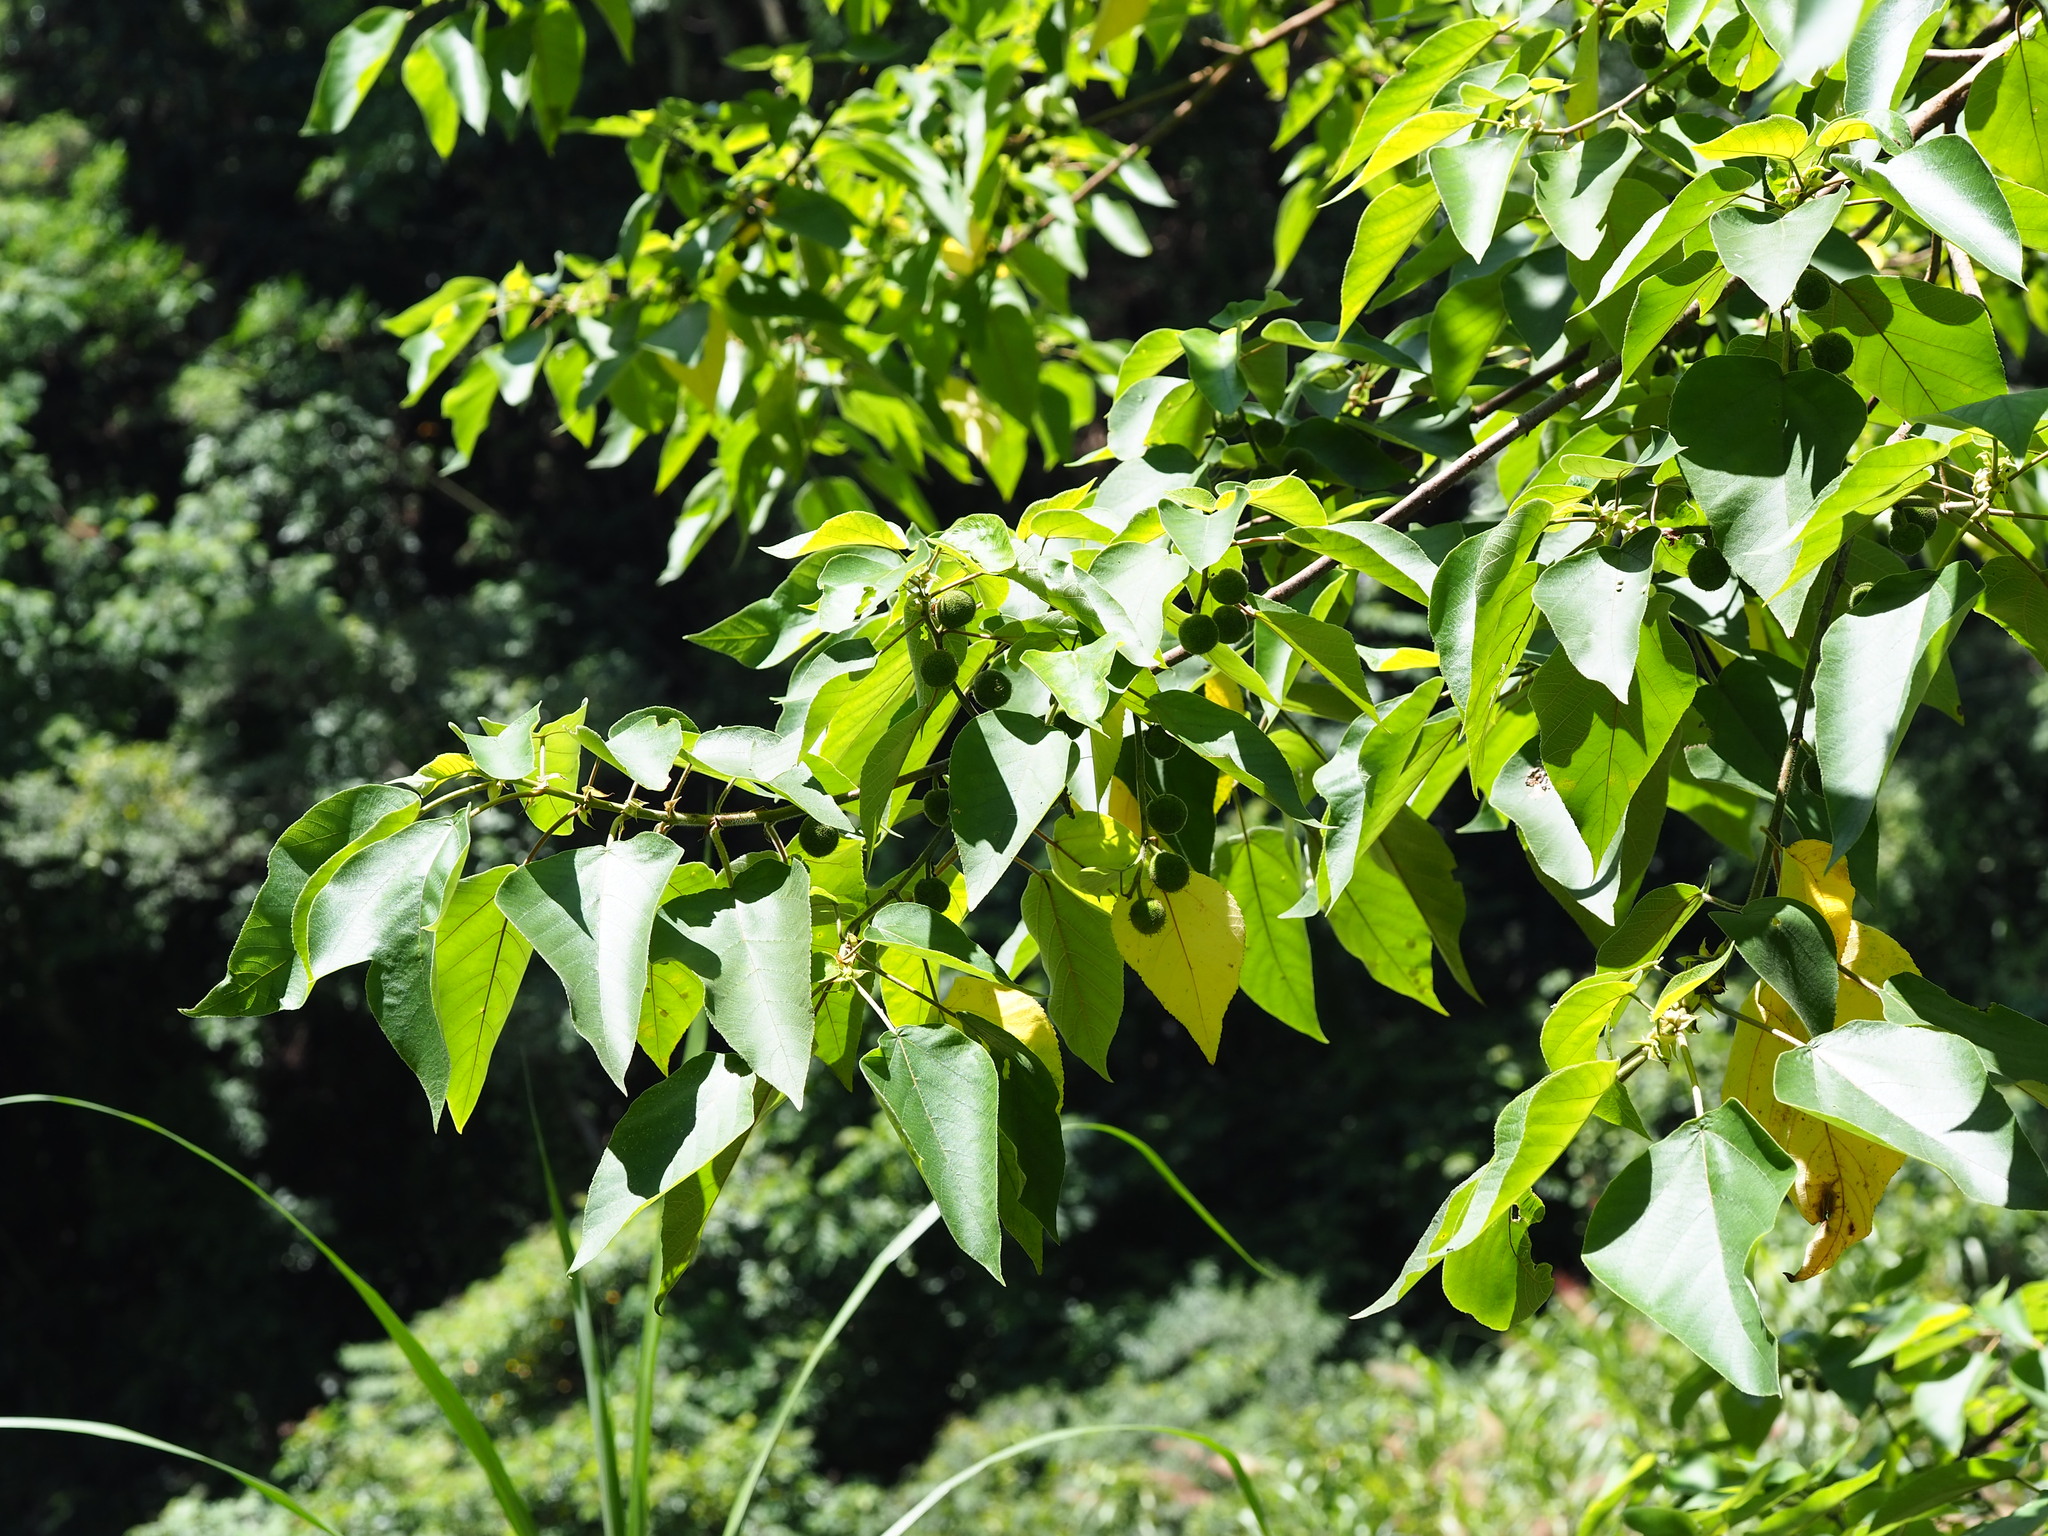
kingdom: Plantae
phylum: Tracheophyta
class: Magnoliopsida
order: Rosales
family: Moraceae
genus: Broussonetia
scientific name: Broussonetia papyrifera
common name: Paper mulberry
